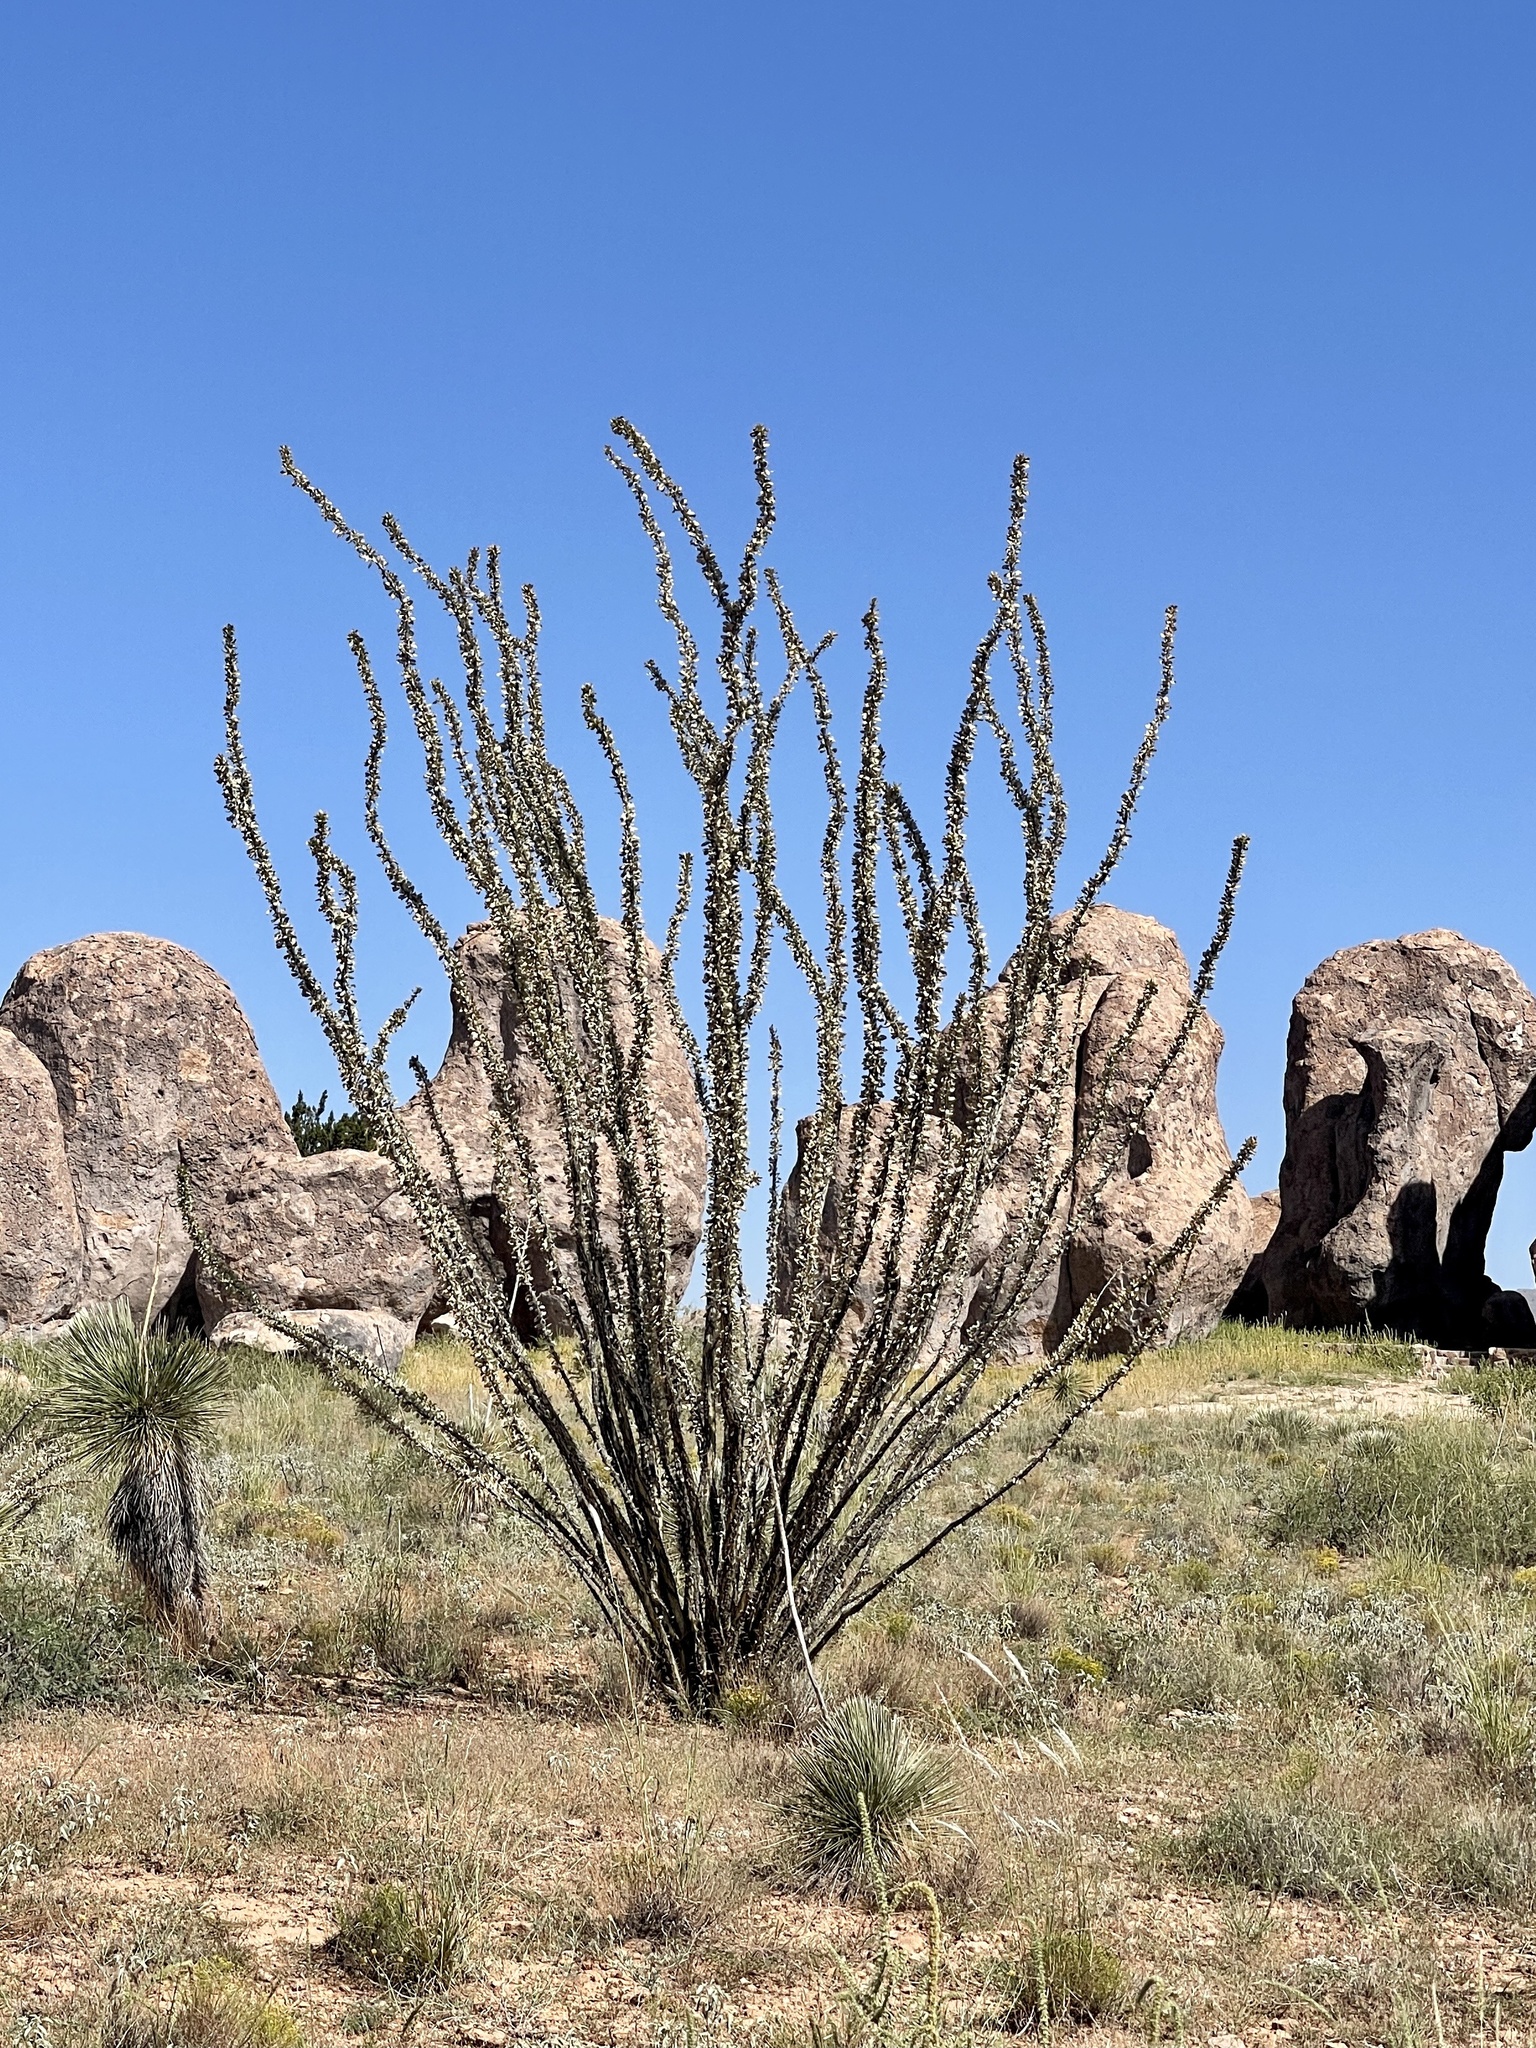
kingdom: Plantae
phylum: Tracheophyta
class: Magnoliopsida
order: Ericales
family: Fouquieriaceae
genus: Fouquieria
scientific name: Fouquieria splendens
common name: Vine-cactus
